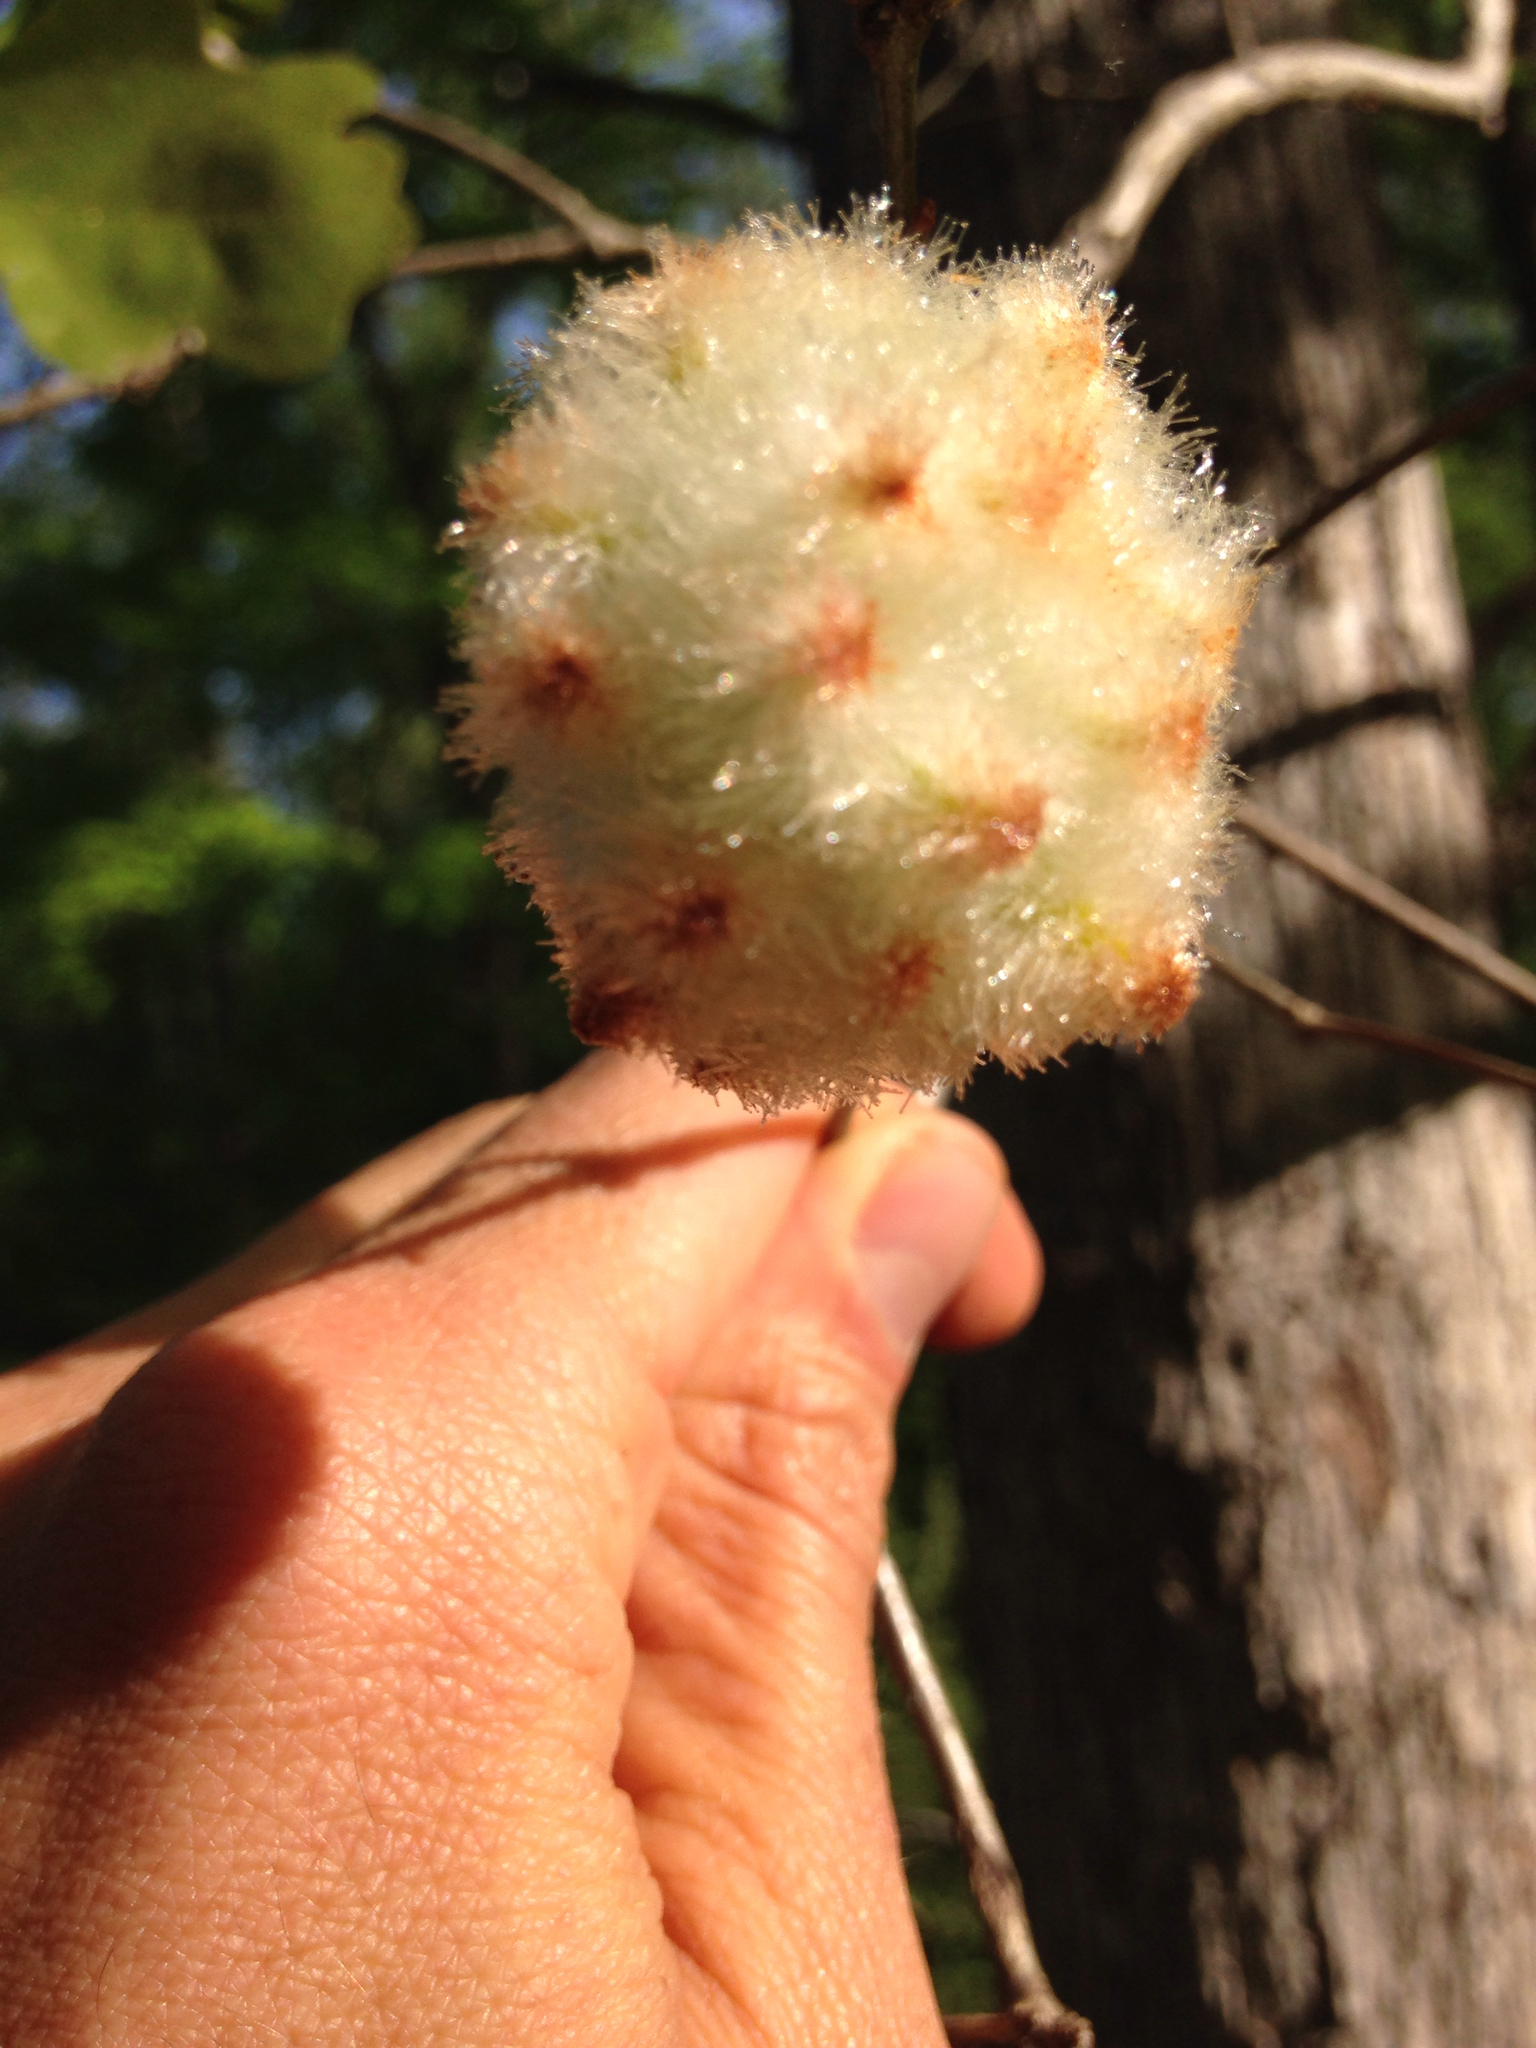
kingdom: Animalia
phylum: Arthropoda
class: Insecta
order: Hymenoptera
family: Cynipidae
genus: Callirhytis
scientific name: Callirhytis
